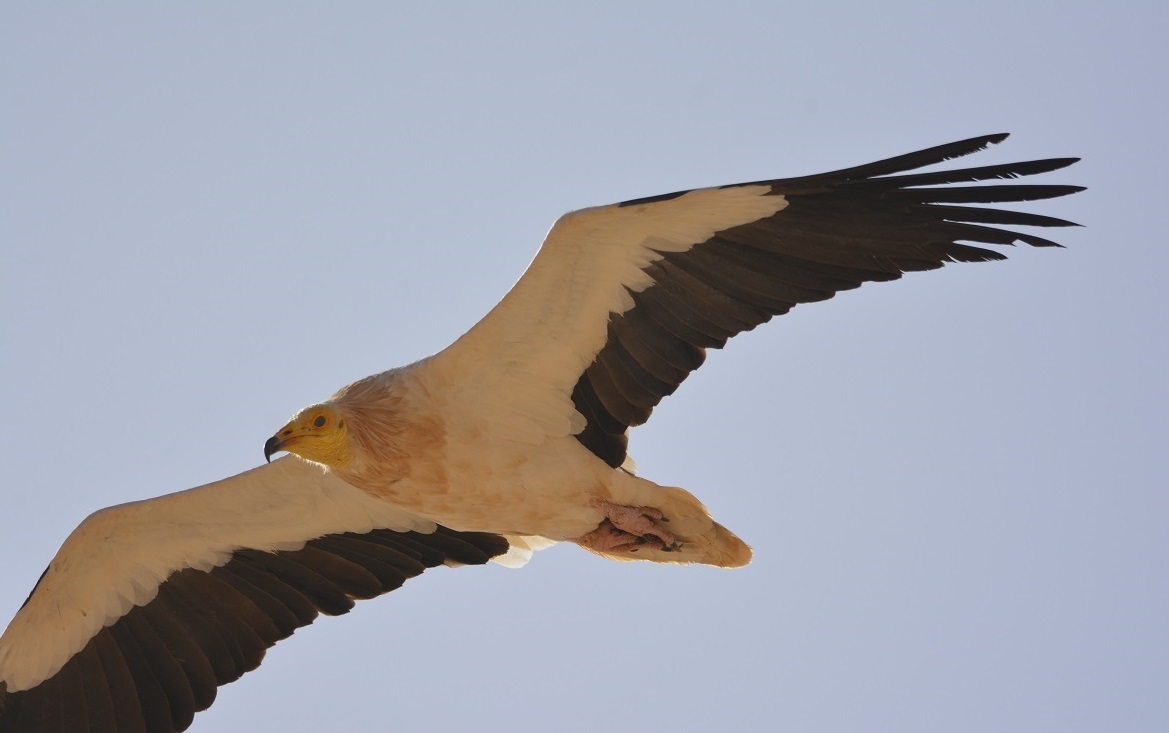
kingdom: Animalia
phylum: Chordata
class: Aves
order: Accipitriformes
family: Accipitridae
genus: Neophron
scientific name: Neophron percnopterus
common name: Egyptian vulture
